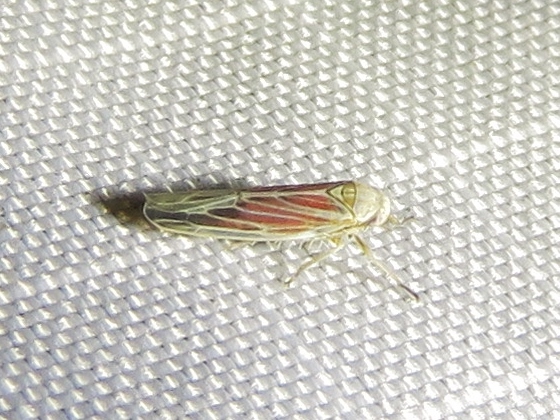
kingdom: Animalia
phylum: Arthropoda
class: Insecta
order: Hemiptera
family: Cicadellidae
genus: Balclutha
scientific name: Balclutha rubrostriata
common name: Red-streaked leafhopper
